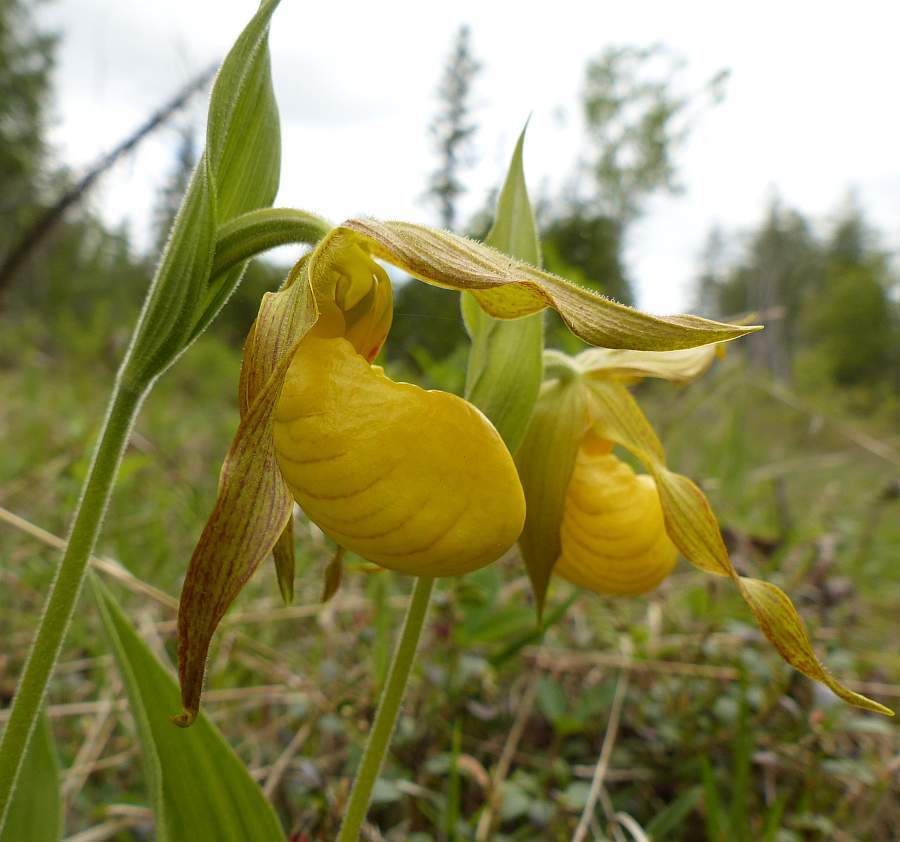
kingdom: Plantae
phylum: Tracheophyta
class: Liliopsida
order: Asparagales
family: Orchidaceae
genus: Cypripedium
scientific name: Cypripedium parviflorum
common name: American yellow lady's-slipper
